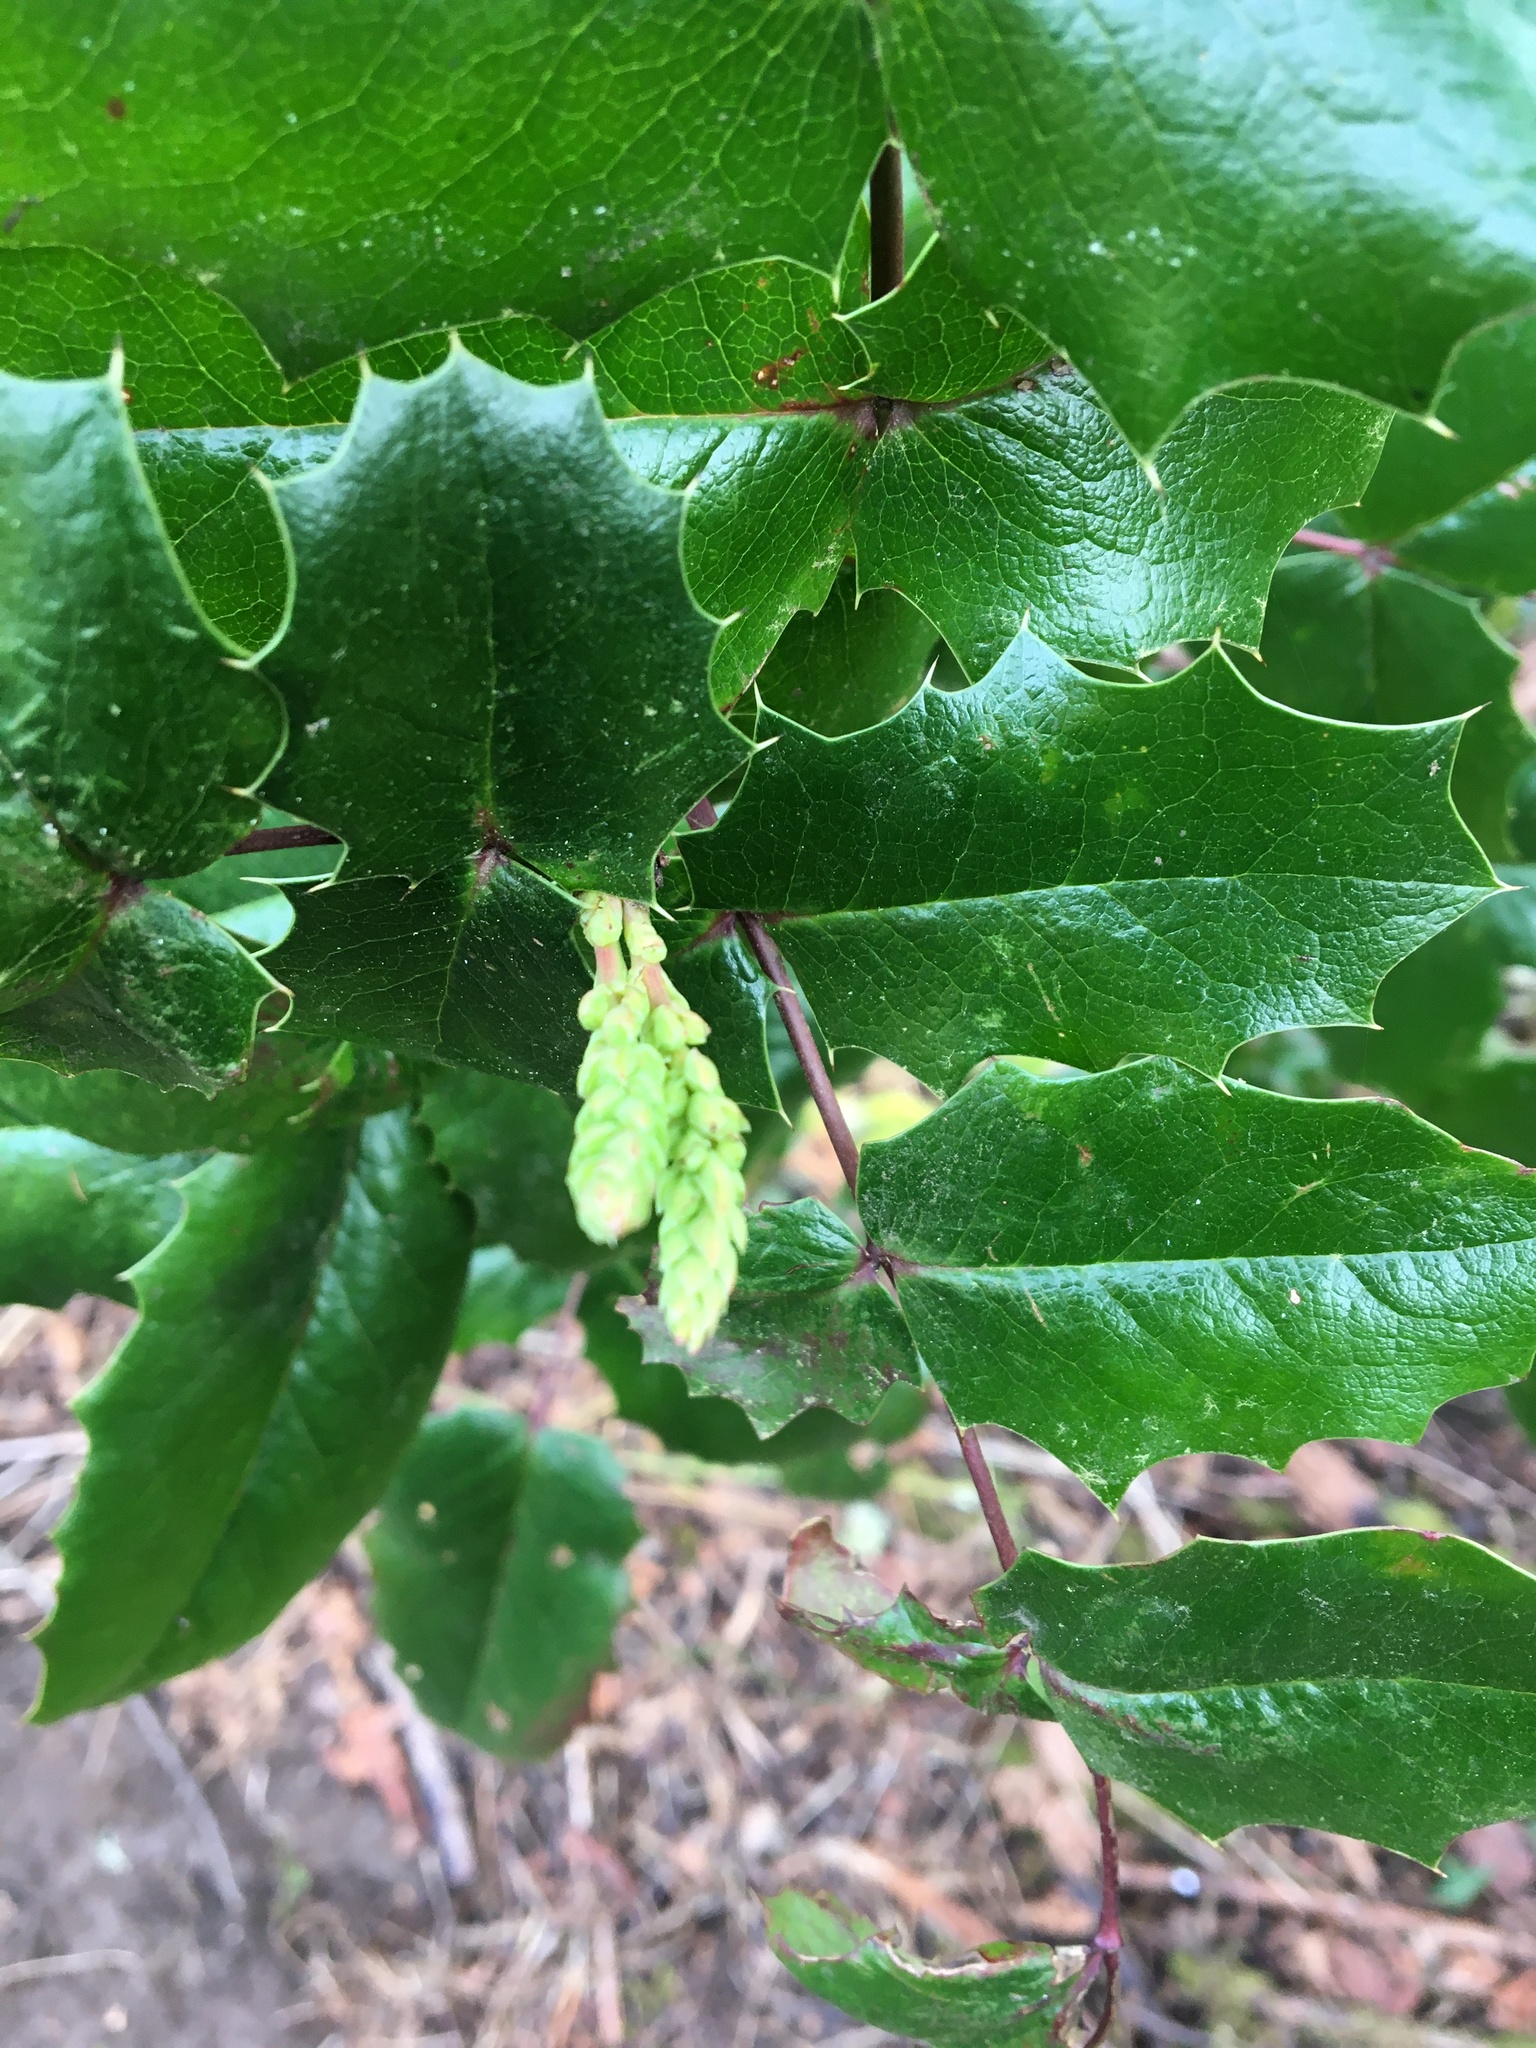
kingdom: Plantae
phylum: Tracheophyta
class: Magnoliopsida
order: Ranunculales
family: Berberidaceae
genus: Mahonia
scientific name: Mahonia aquifolium
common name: Oregon-grape
